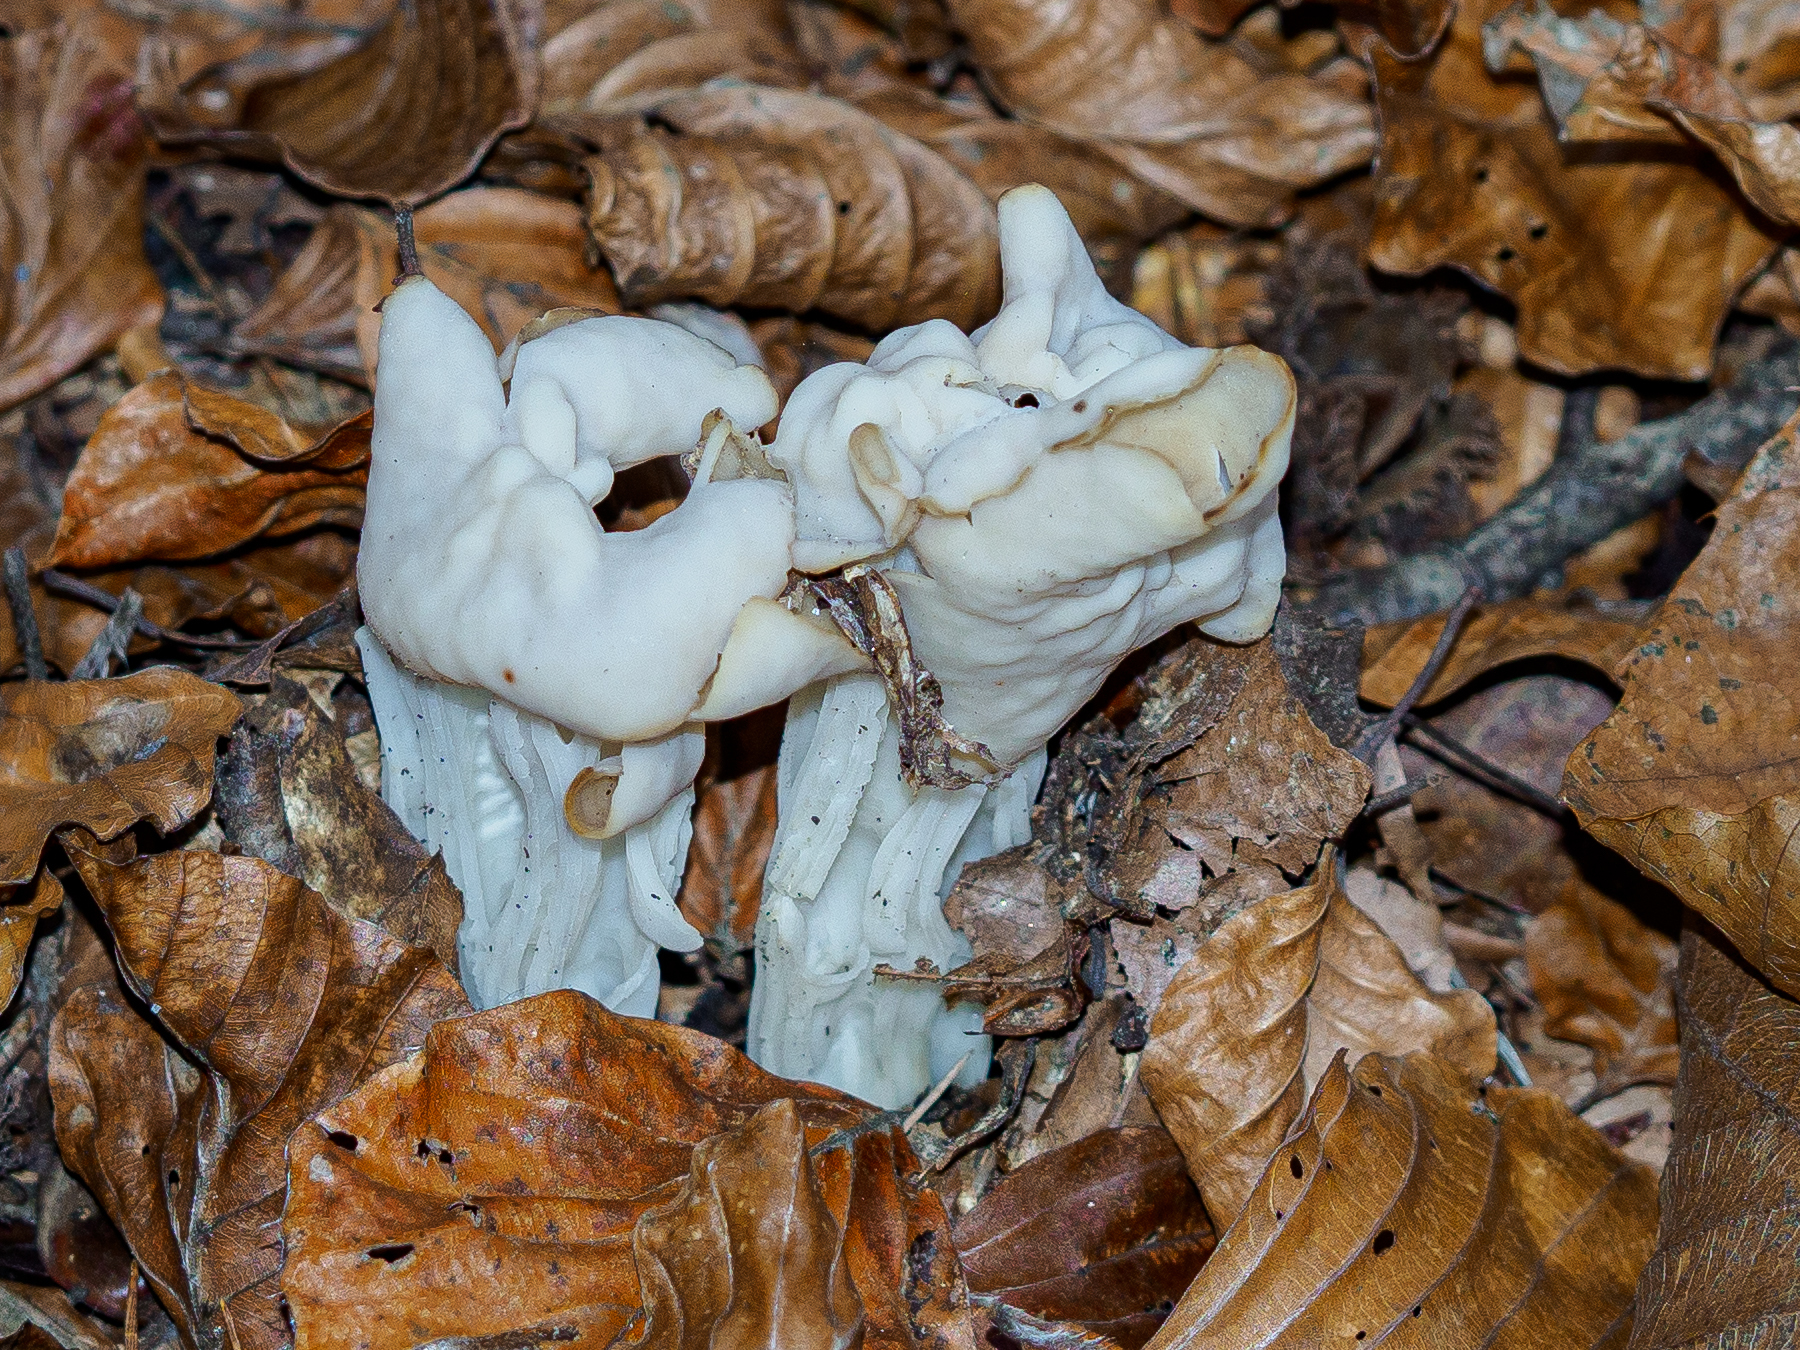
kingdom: Fungi
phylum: Ascomycota
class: Pezizomycetes
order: Pezizales
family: Helvellaceae
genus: Helvella
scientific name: Helvella crispa
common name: White saddle
